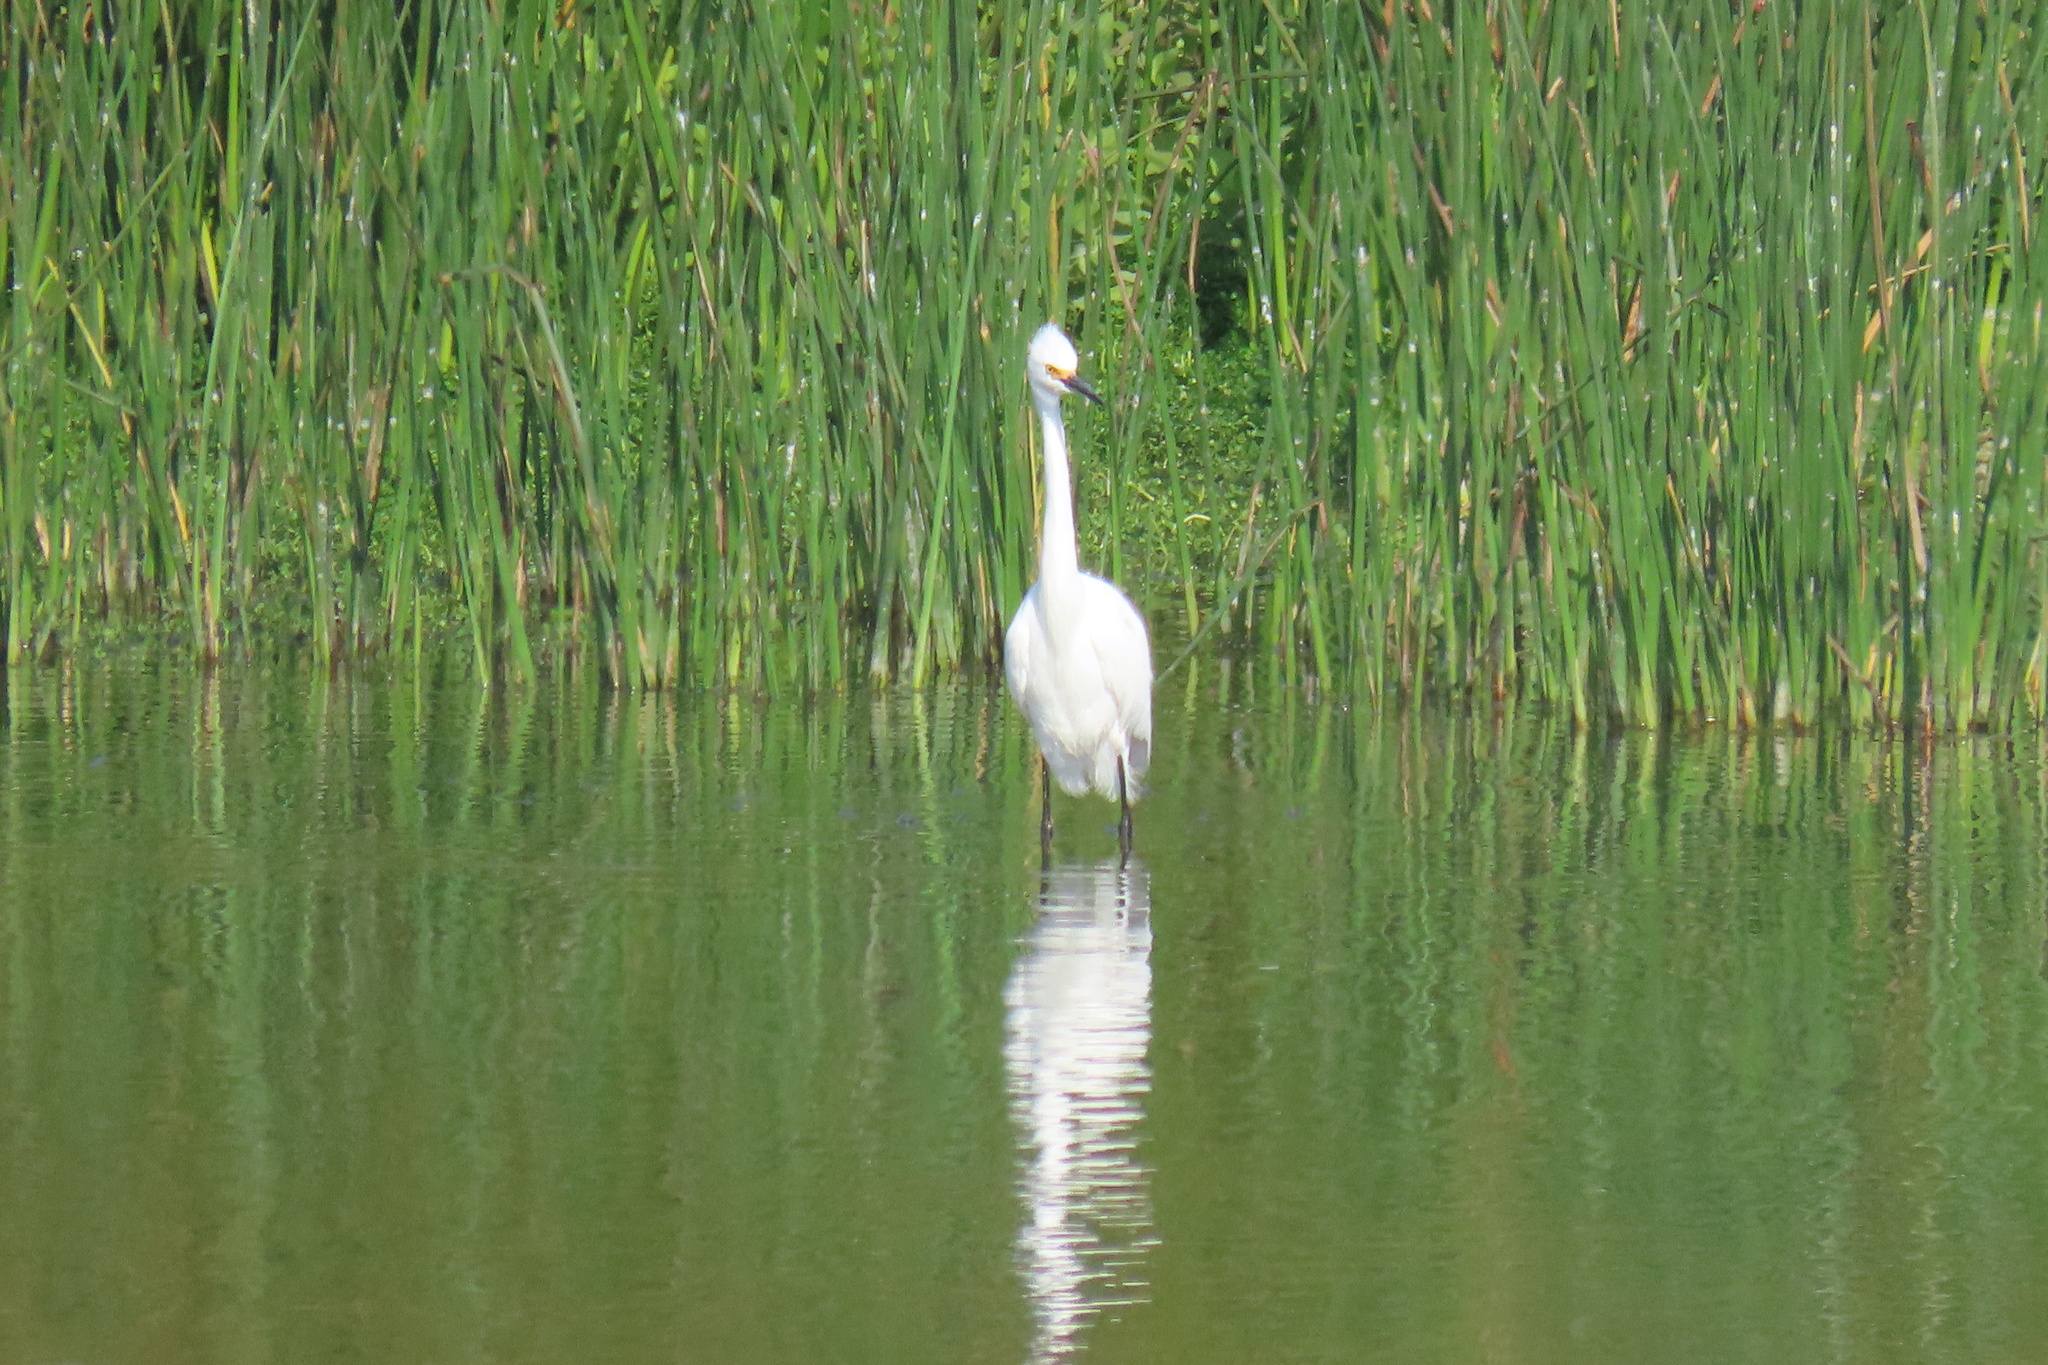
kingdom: Animalia
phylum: Chordata
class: Aves
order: Pelecaniformes
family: Ardeidae
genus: Egretta
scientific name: Egretta thula
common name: Snowy egret
